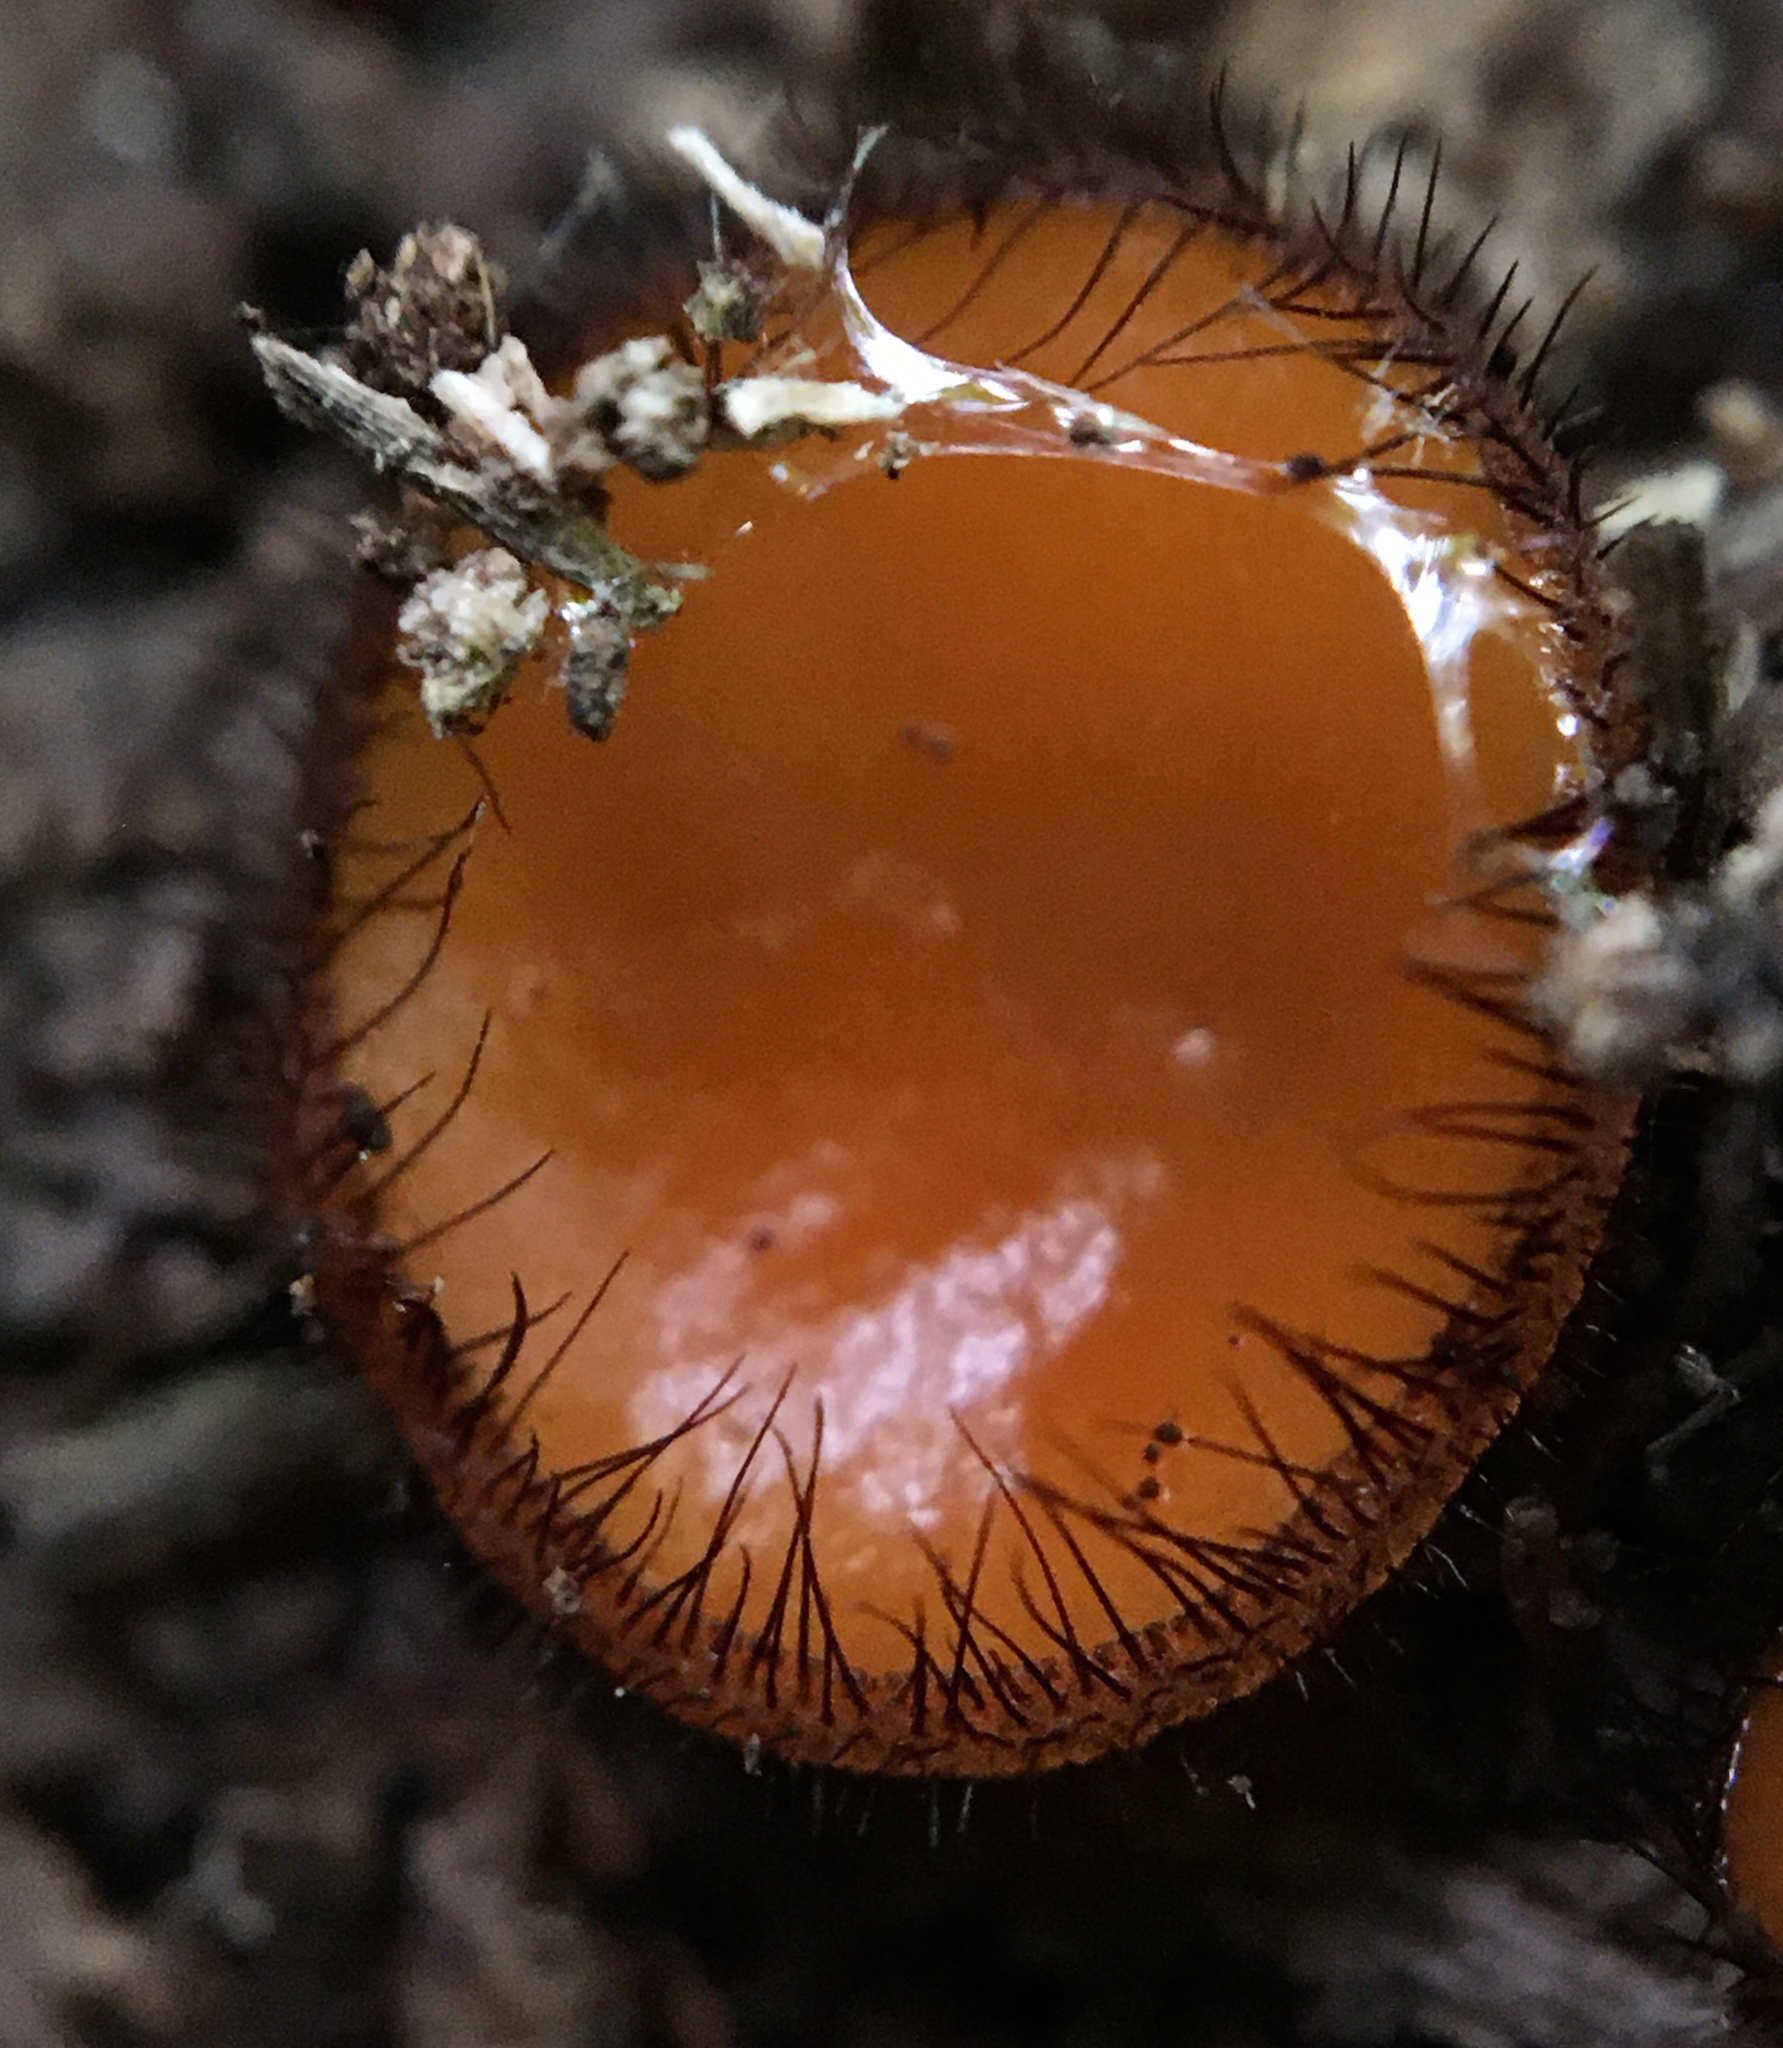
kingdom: Fungi
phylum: Ascomycota
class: Pezizomycetes
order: Pezizales
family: Pyronemataceae
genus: Scutellinia
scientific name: Scutellinia crinita
